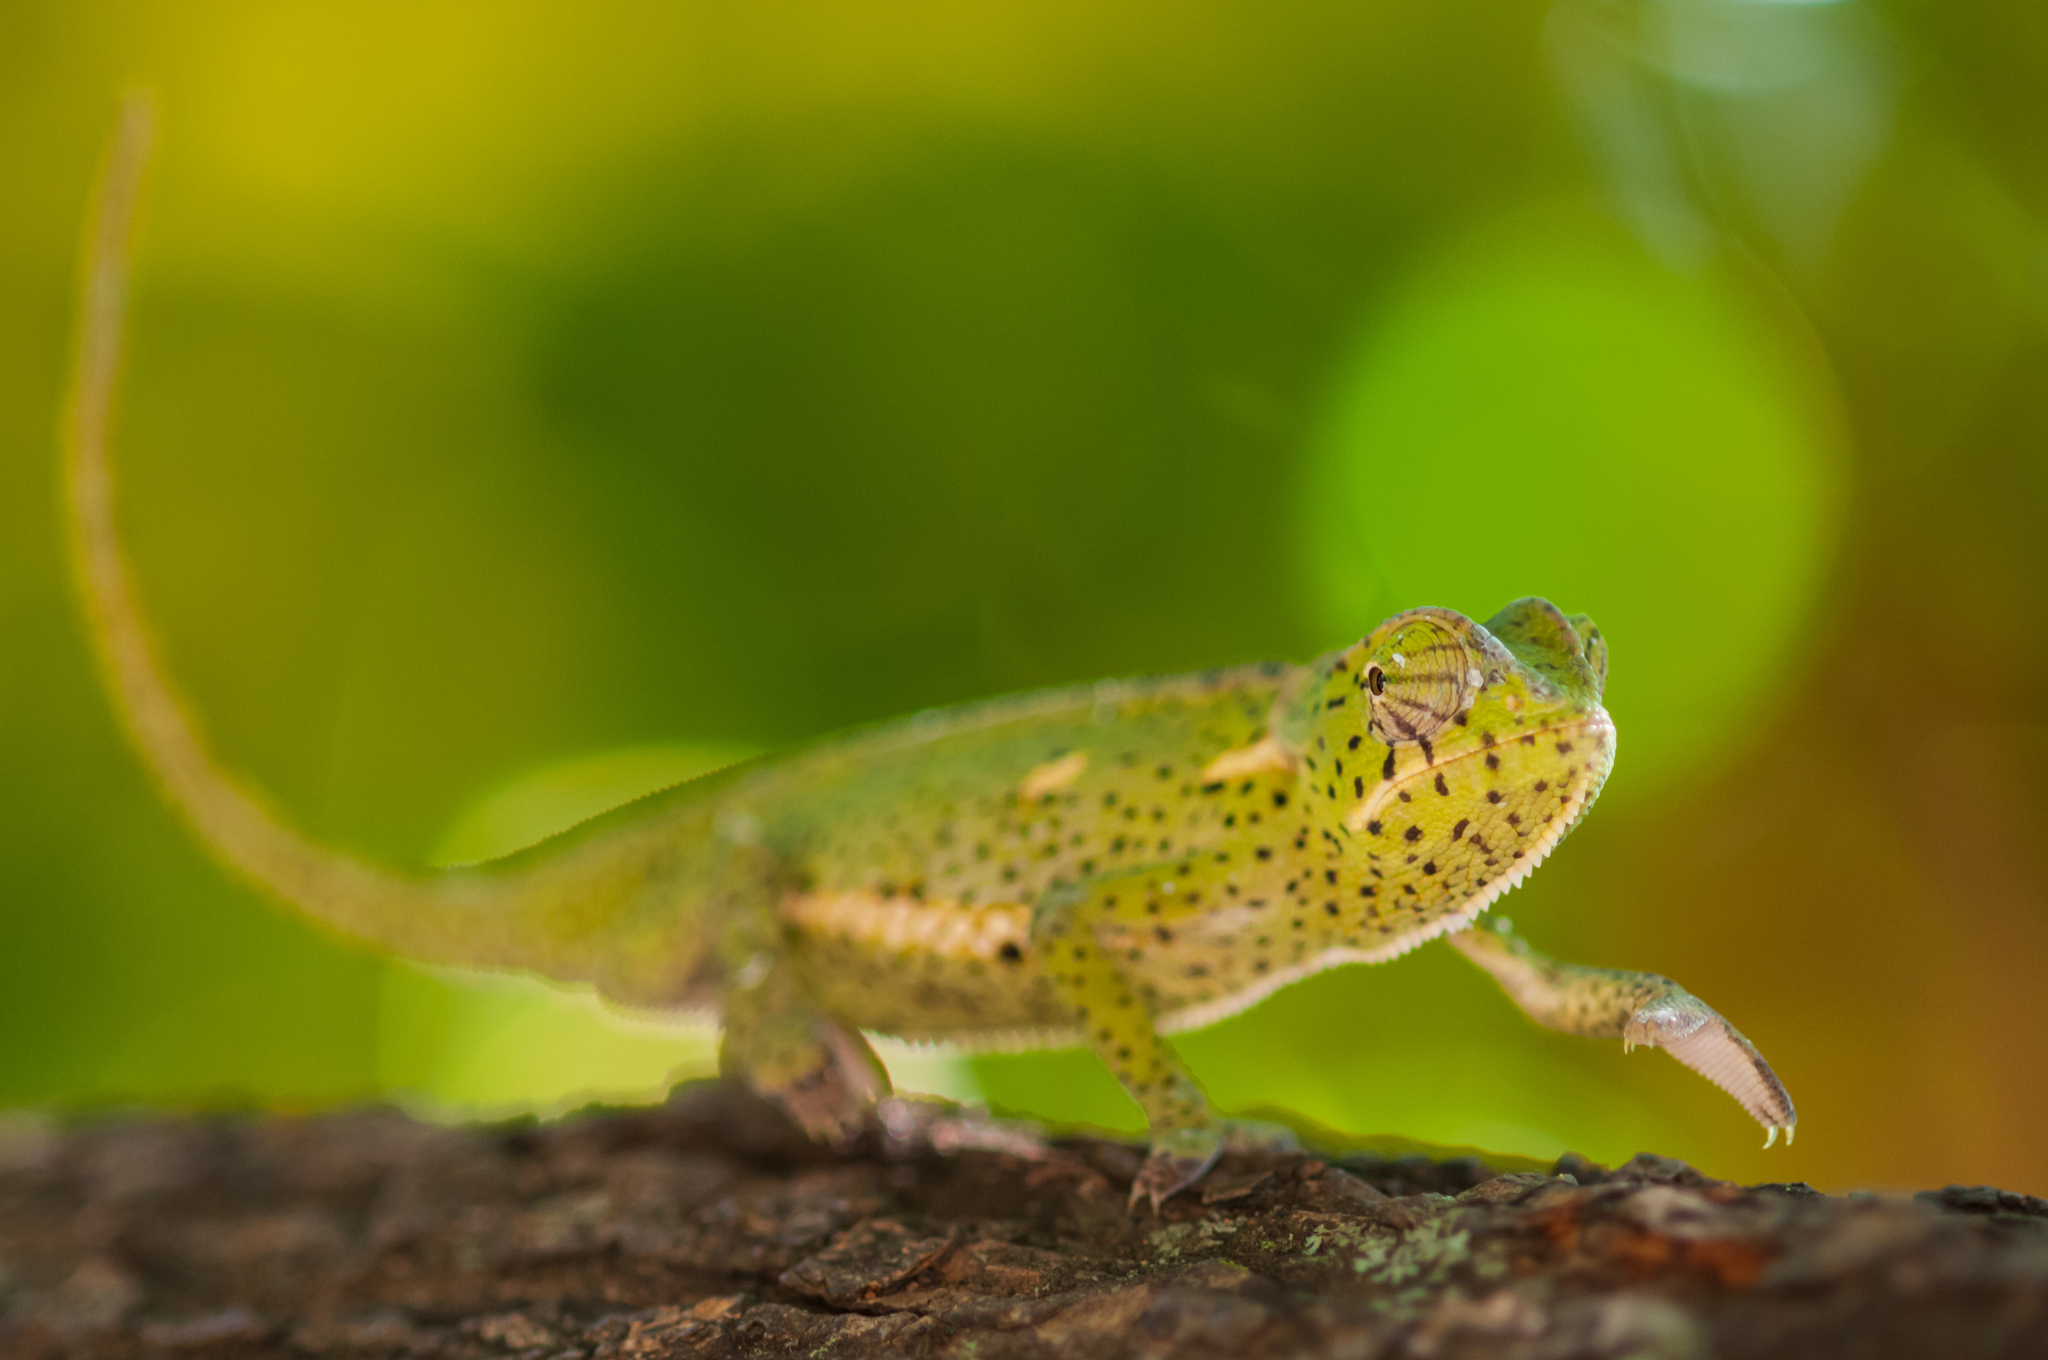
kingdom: Animalia
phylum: Chordata
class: Squamata
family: Chamaeleonidae
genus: Chamaeleo
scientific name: Chamaeleo dilepis
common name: Flapneck chameleon
